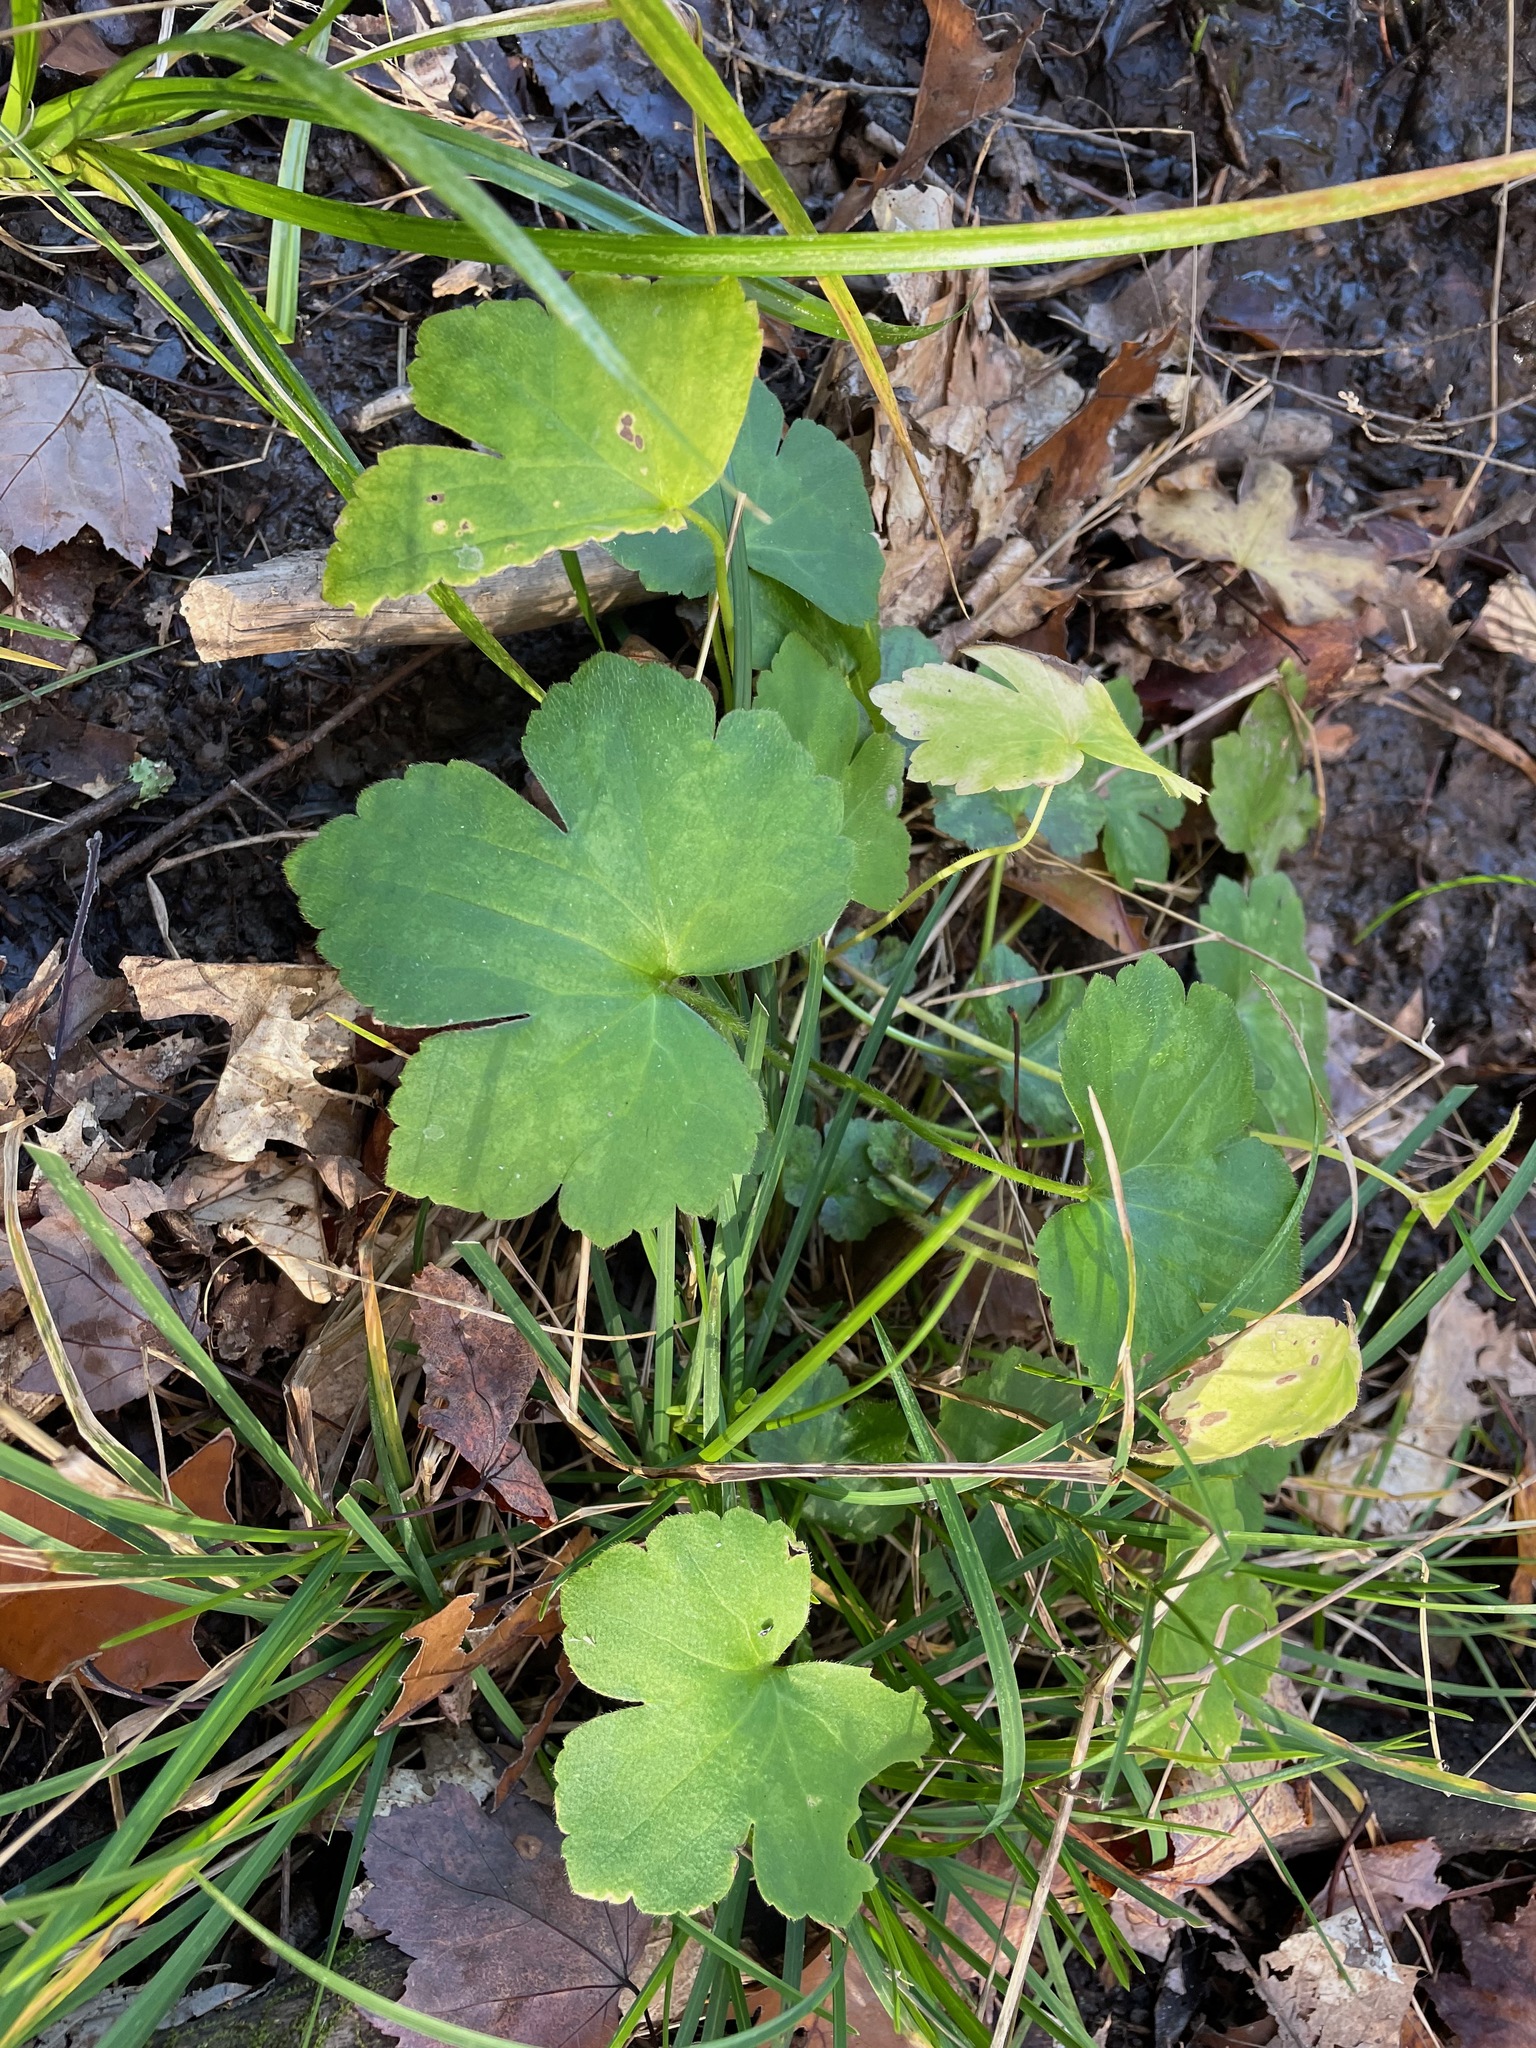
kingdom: Plantae
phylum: Tracheophyta
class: Magnoliopsida
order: Ranunculales
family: Ranunculaceae
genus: Ranunculus
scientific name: Ranunculus recurvatus
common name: Blisterwort
